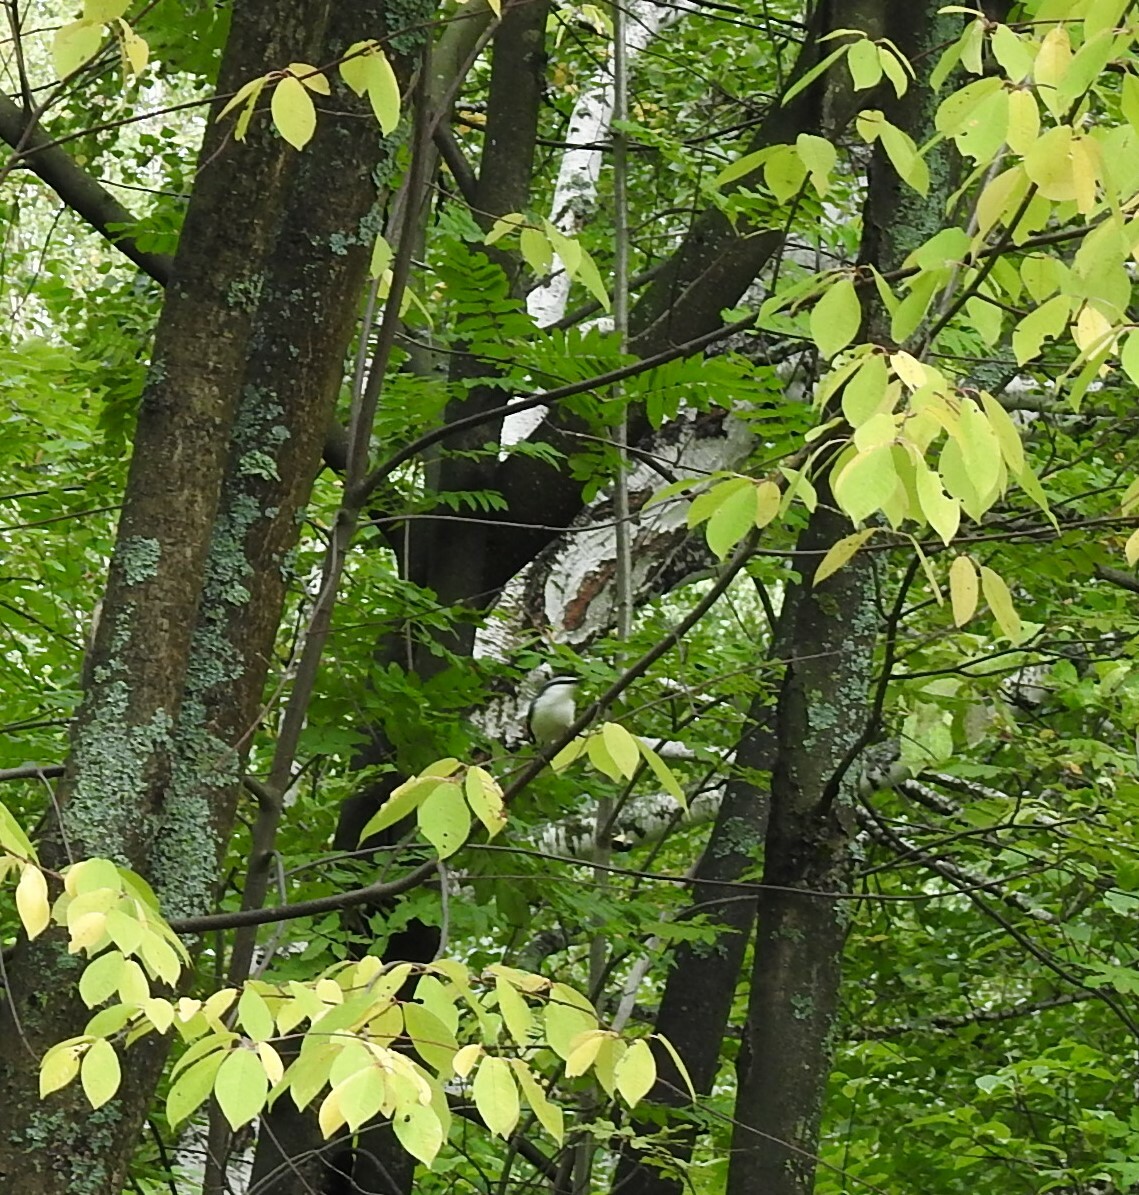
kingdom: Animalia
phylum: Chordata
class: Aves
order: Passeriformes
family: Sittidae
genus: Sitta
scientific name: Sitta europaea
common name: Eurasian nuthatch
